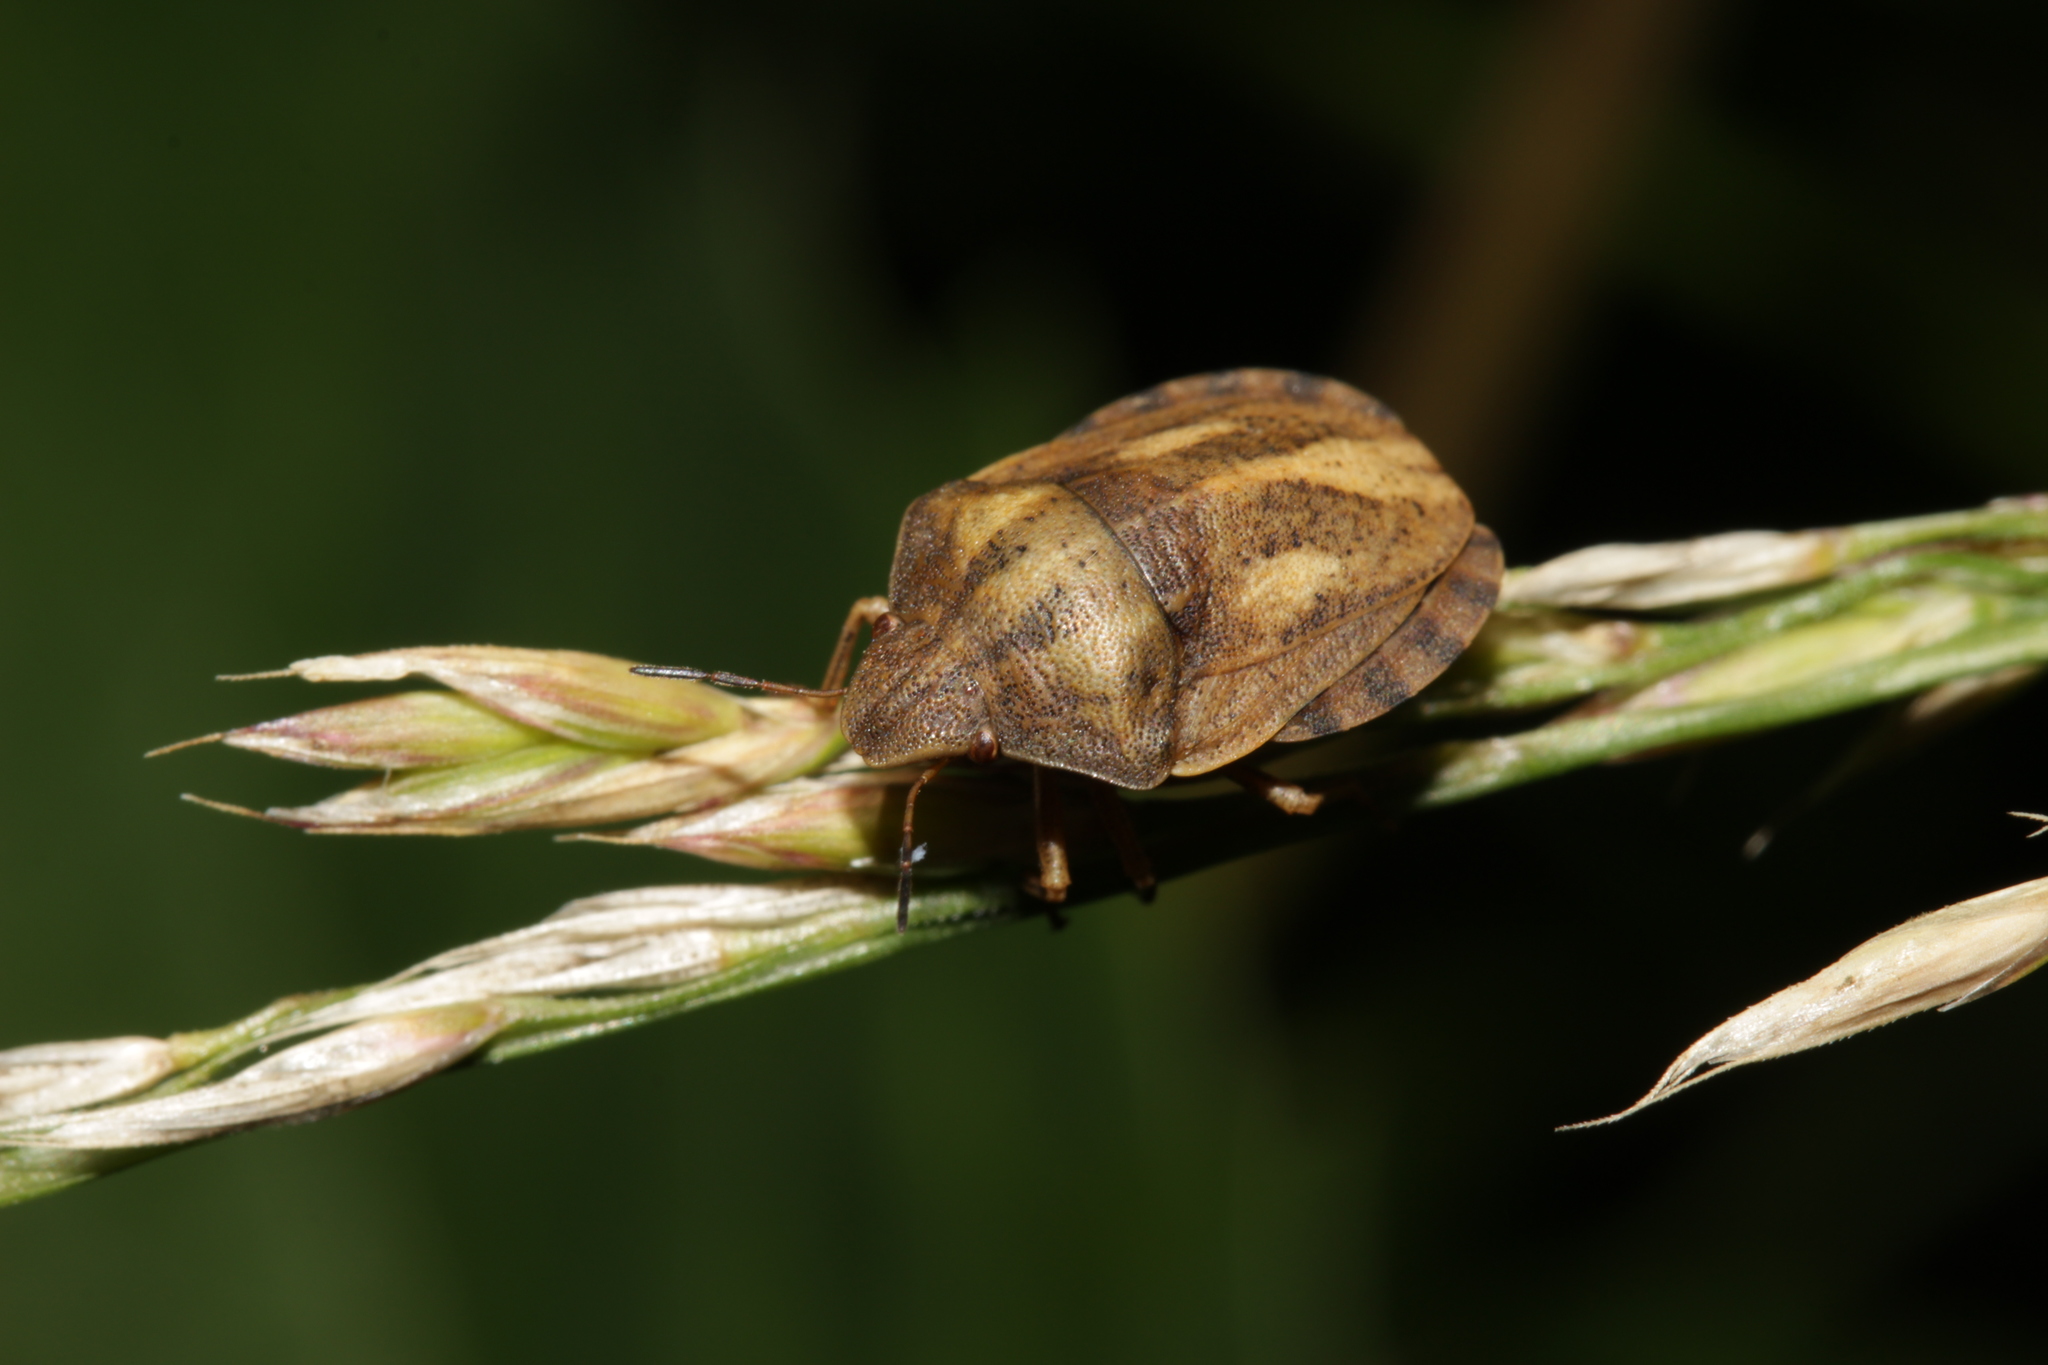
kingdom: Animalia
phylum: Arthropoda
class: Insecta
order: Hemiptera
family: Scutelleridae
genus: Eurygaster
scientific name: Eurygaster testudinaria
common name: Tortoise bug
